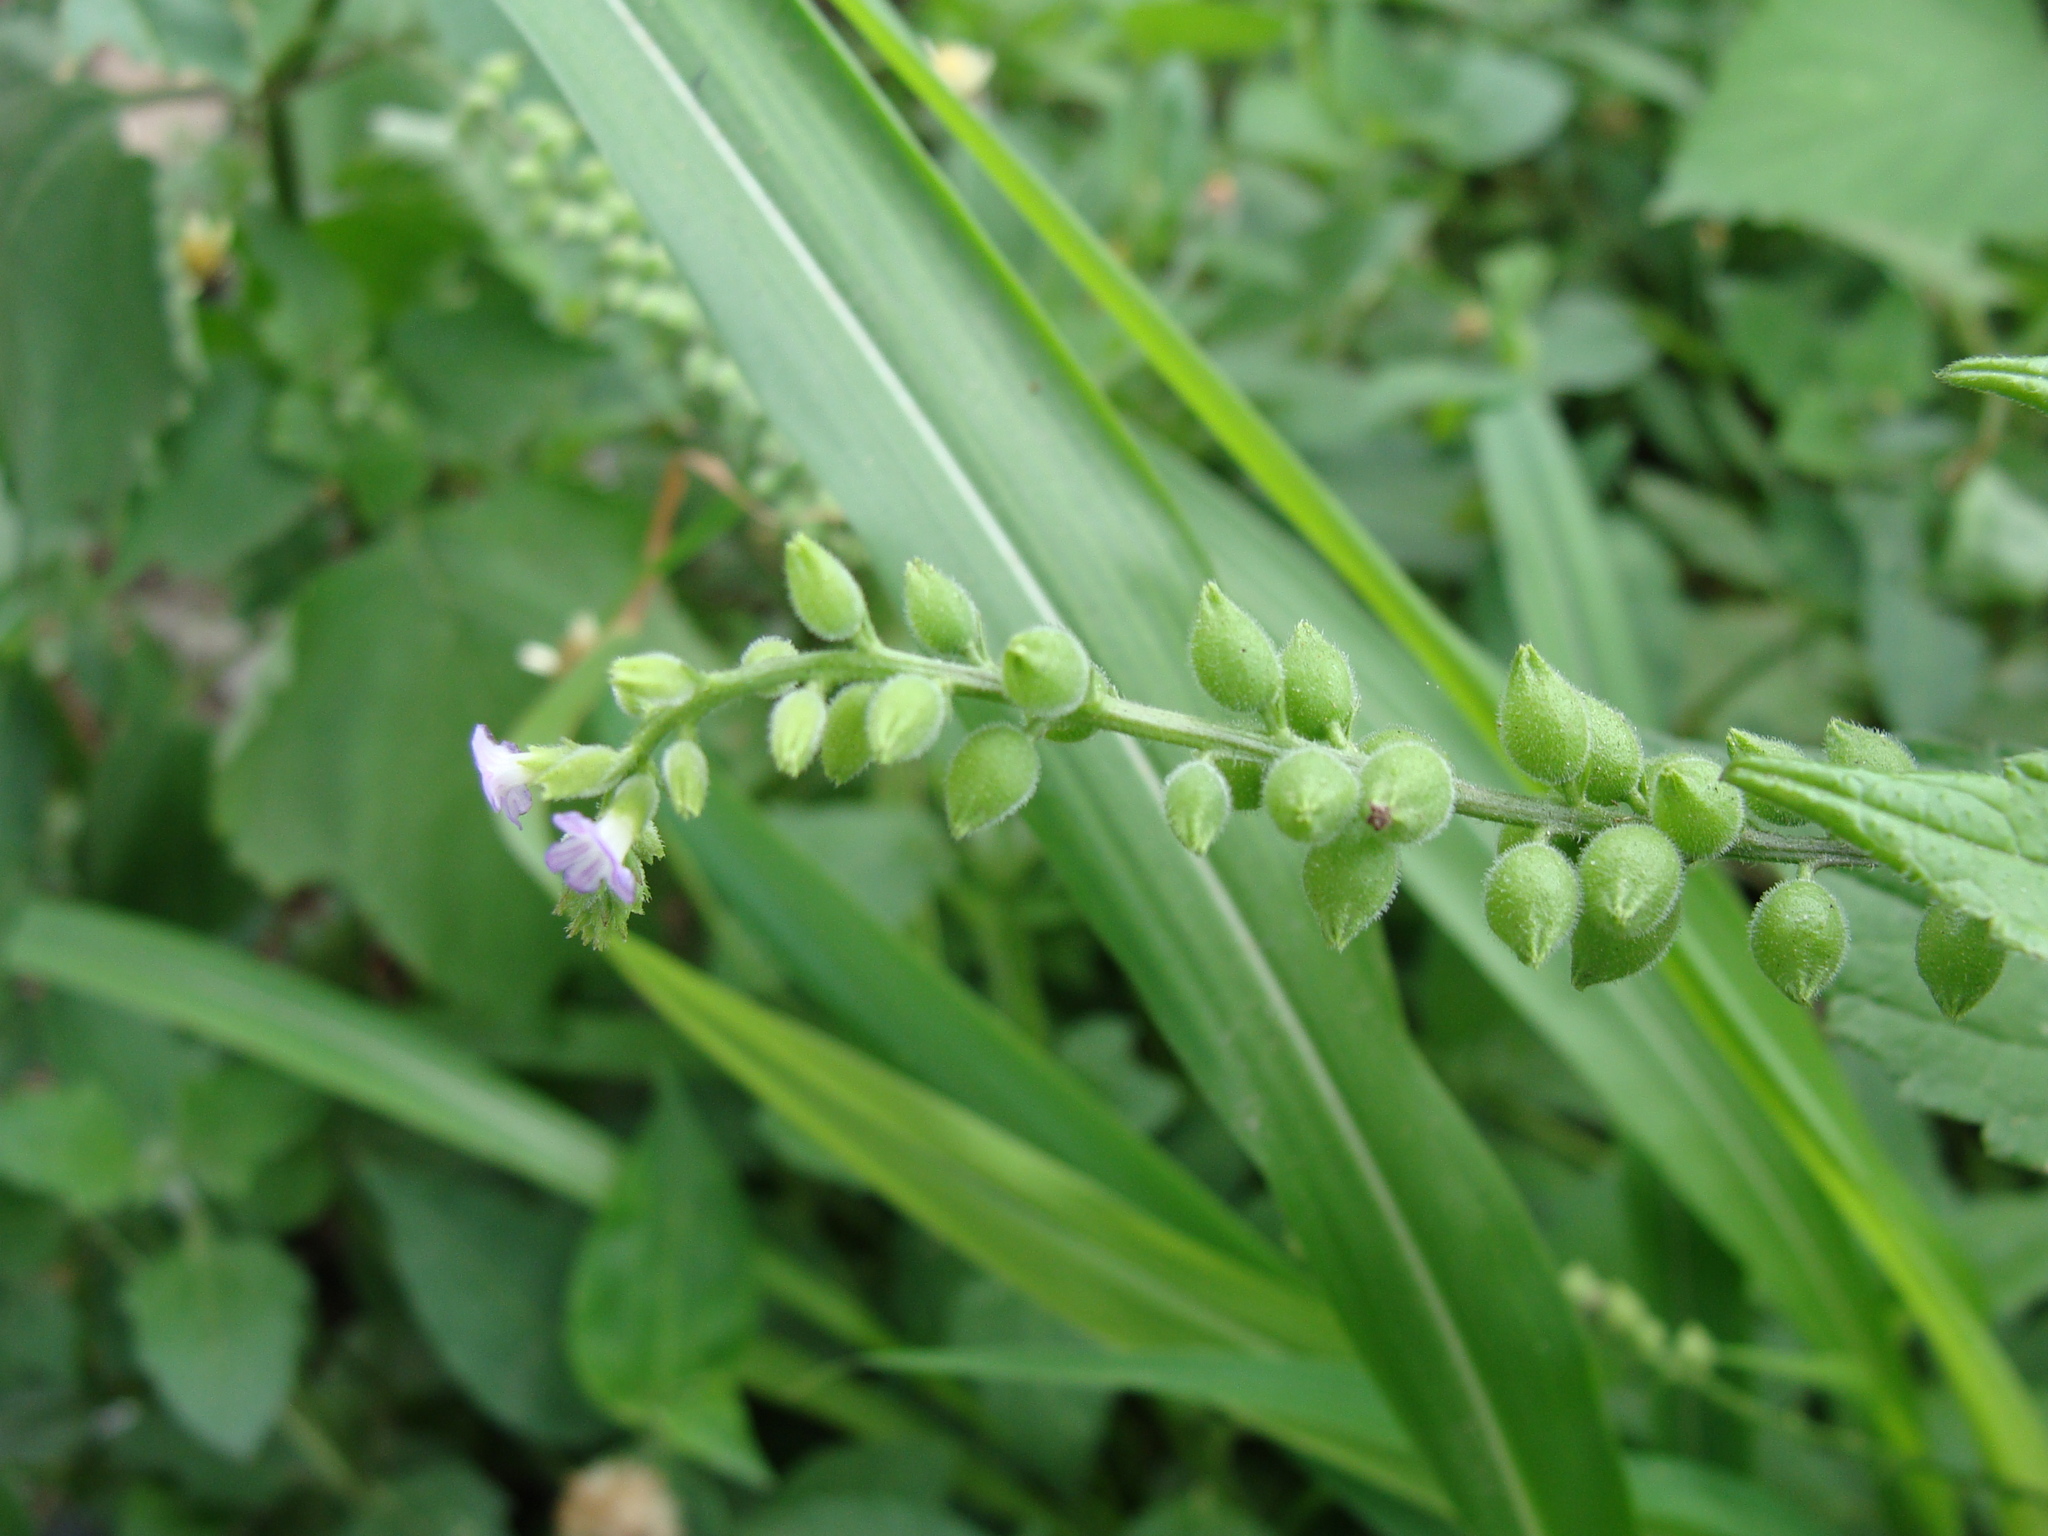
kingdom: Plantae
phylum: Tracheophyta
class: Magnoliopsida
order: Lamiales
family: Verbenaceae
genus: Priva
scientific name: Priva lappulacea
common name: Fasten-'pon-coat
